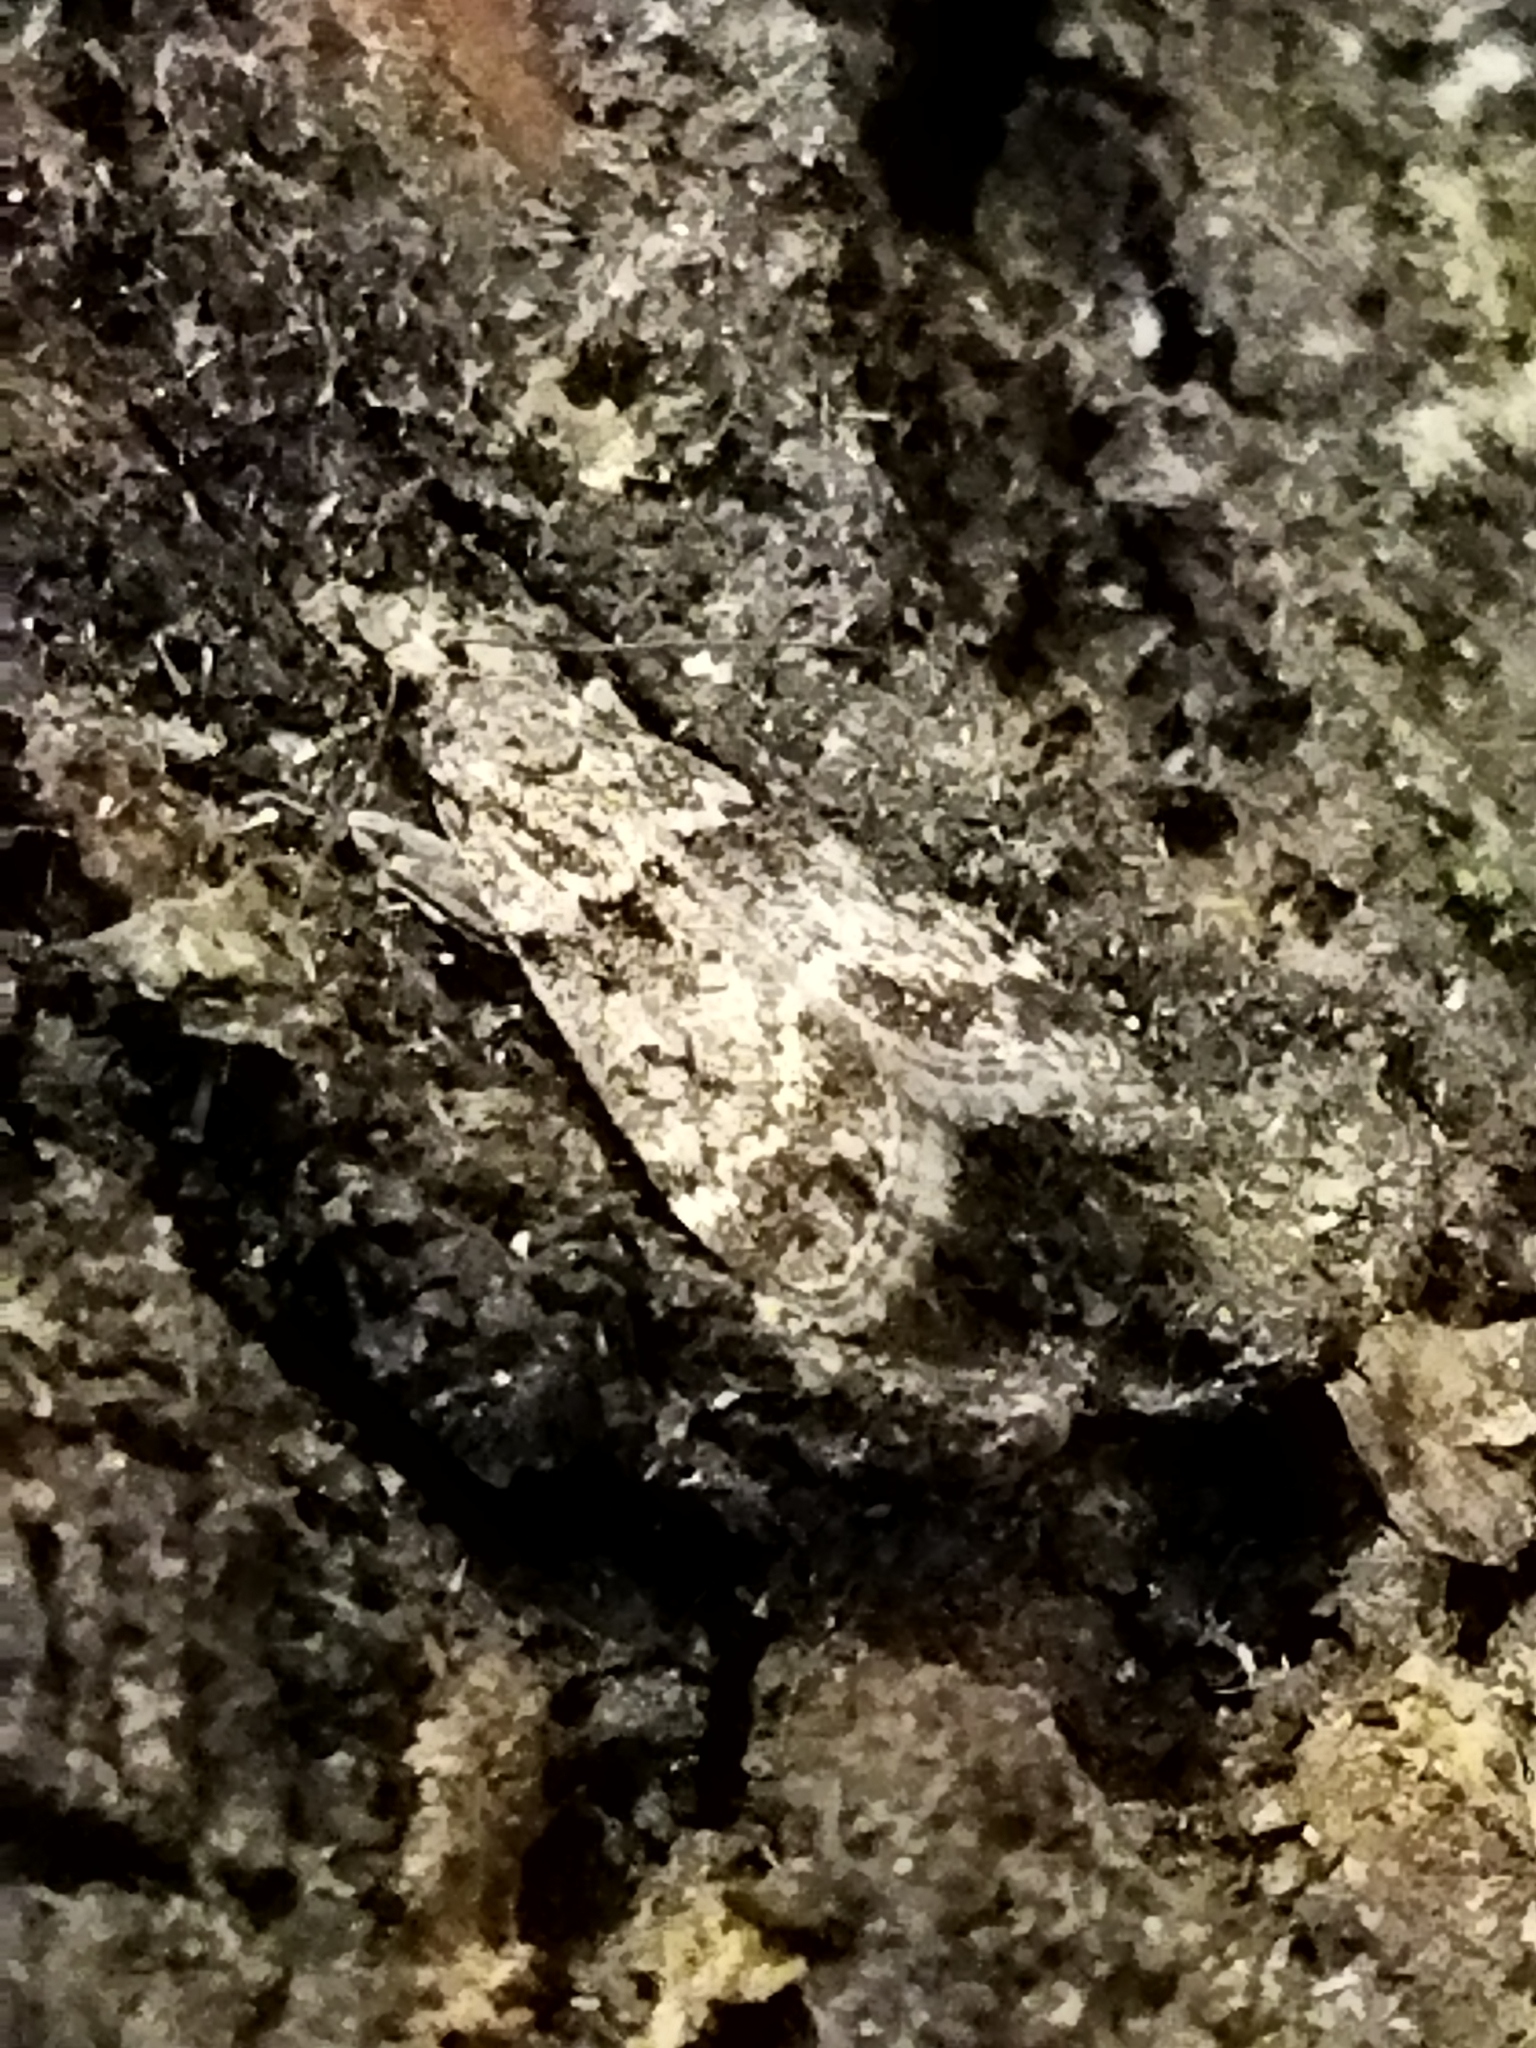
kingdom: Animalia
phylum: Arthropoda
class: Insecta
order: Lepidoptera
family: Crambidae
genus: Eudonia
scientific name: Eudonia mercurella
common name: Small grey
